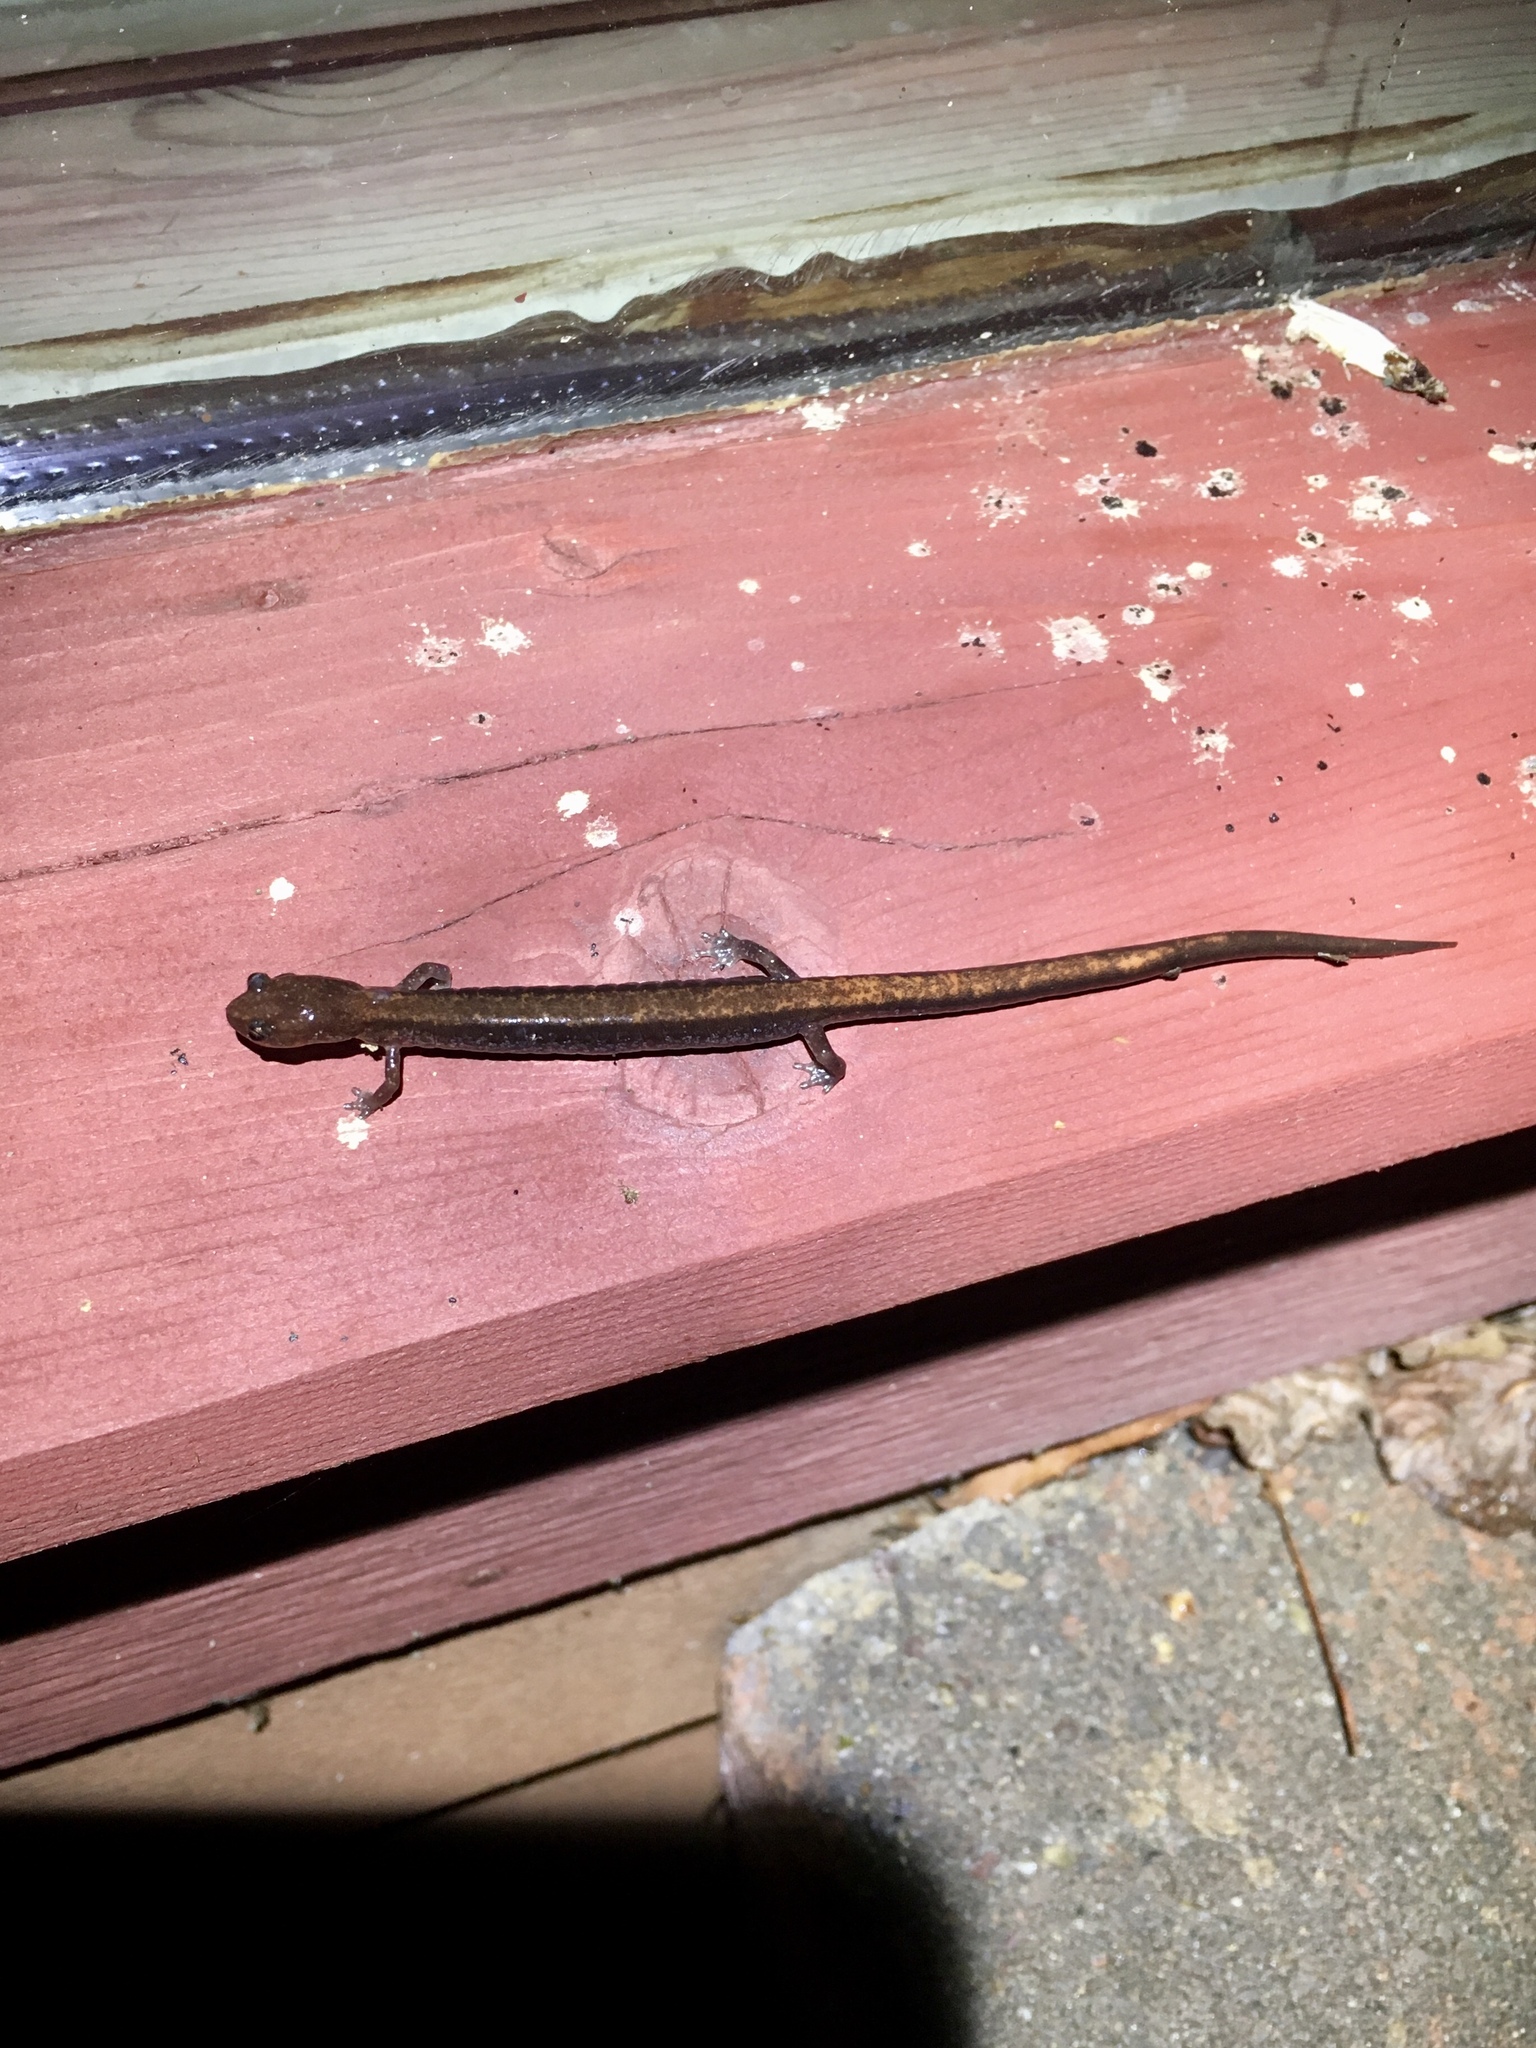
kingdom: Animalia
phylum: Chordata
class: Amphibia
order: Caudata
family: Plethodontidae
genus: Plethodon
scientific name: Plethodon cinereus
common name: Redback salamander
